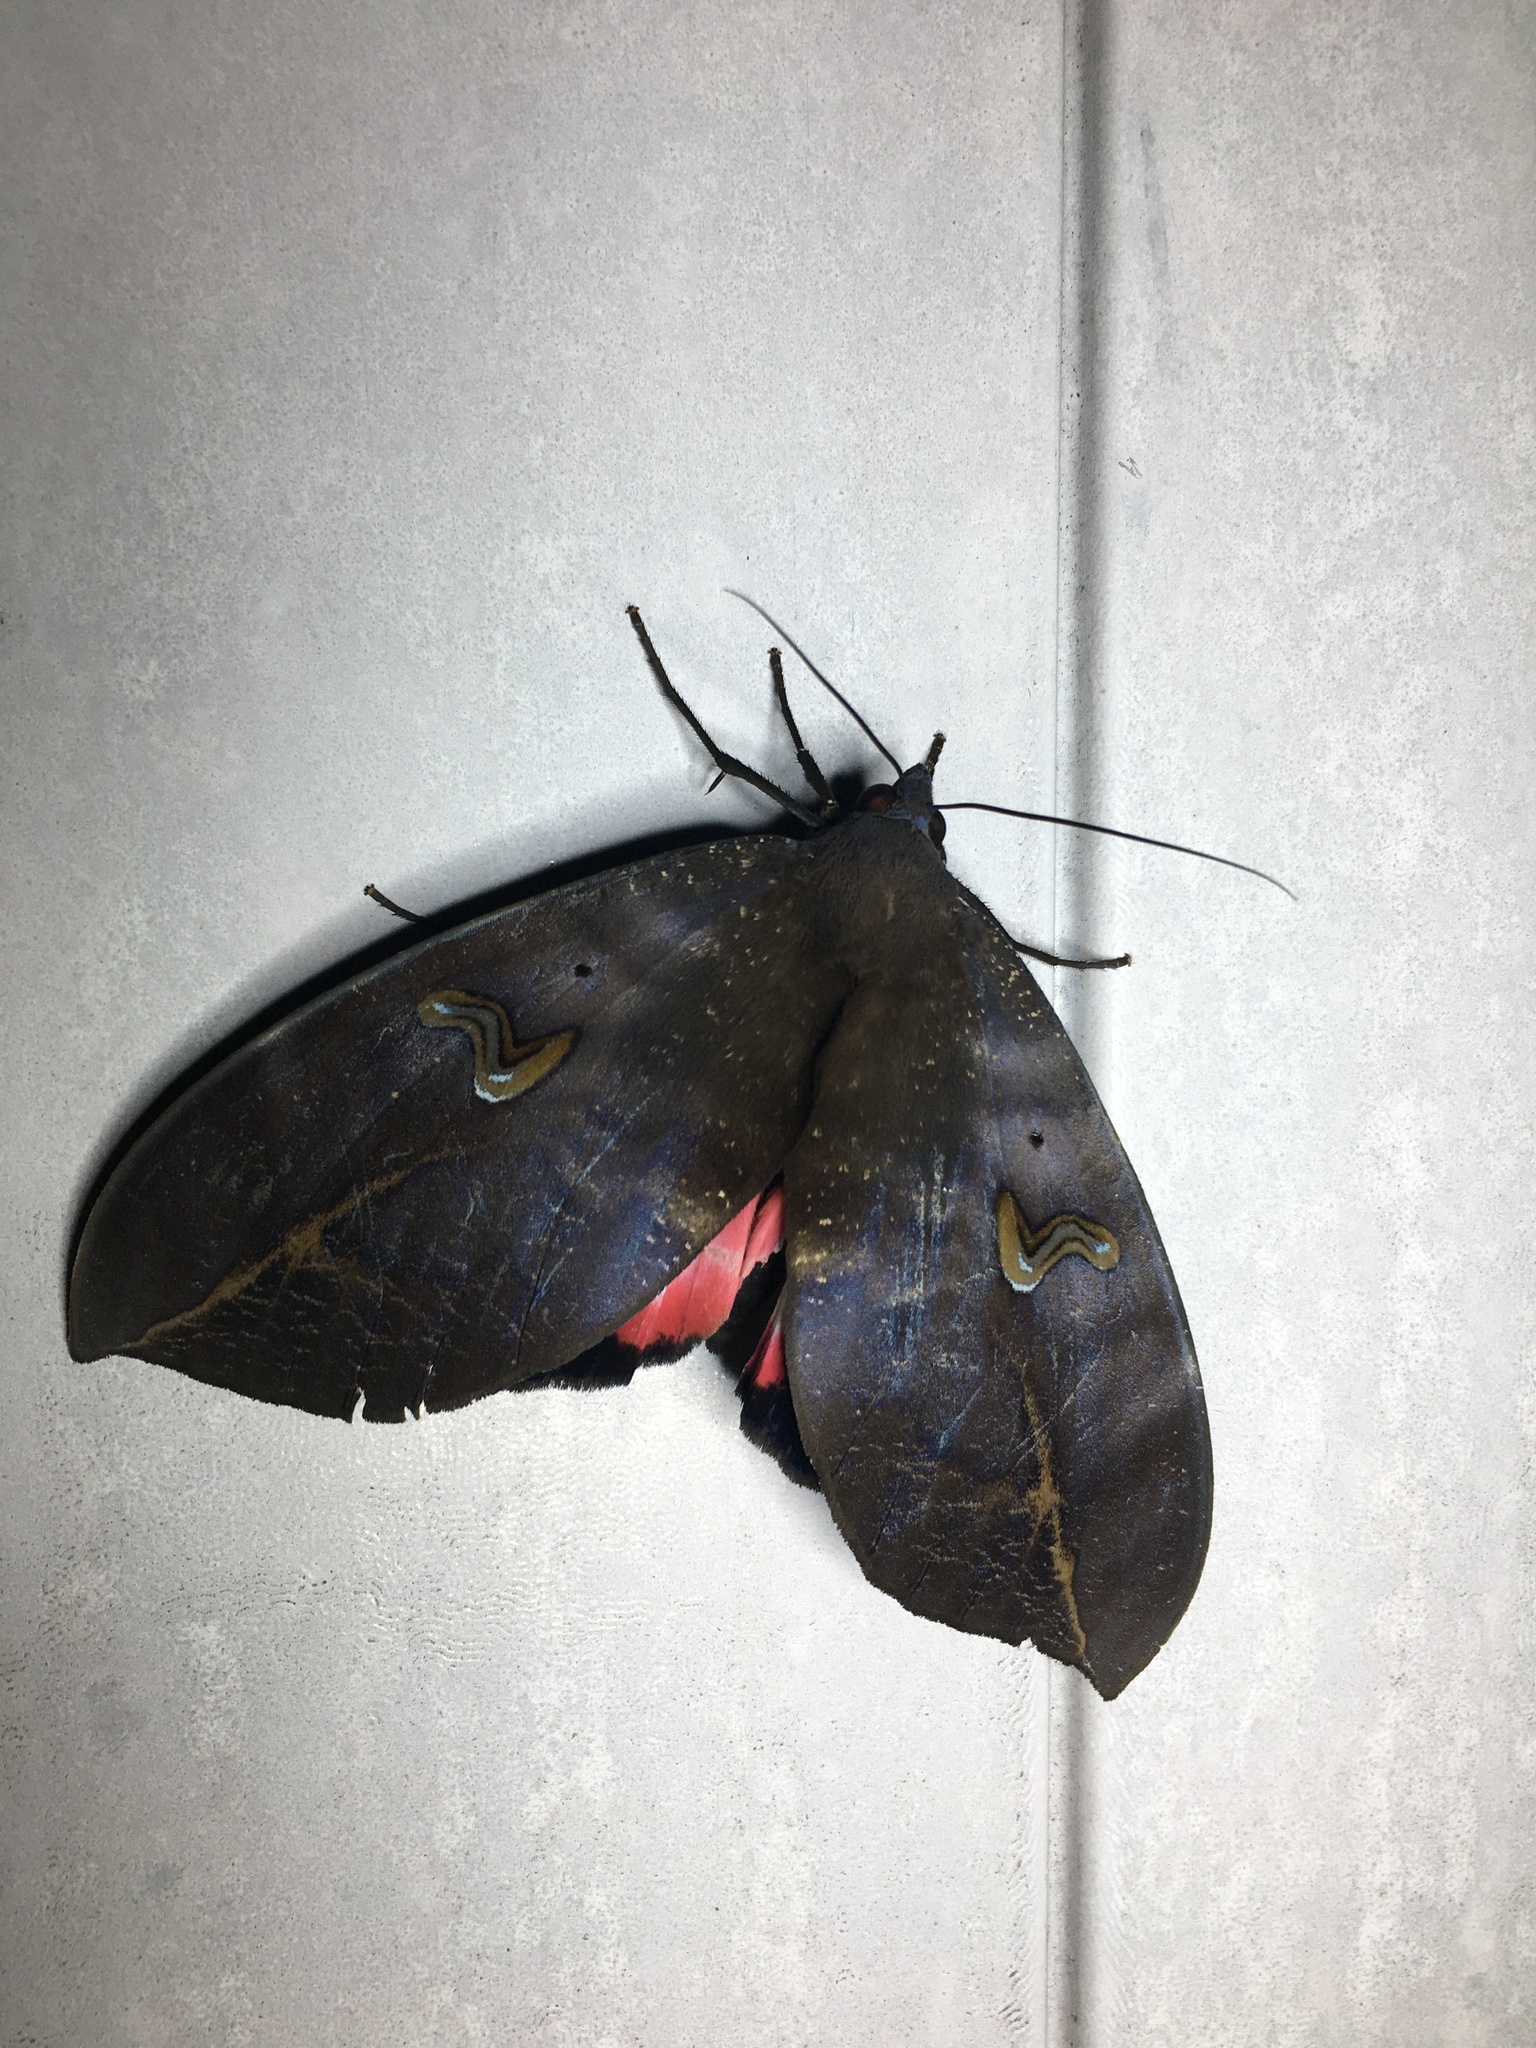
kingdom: Animalia
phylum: Arthropoda
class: Insecta
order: Lepidoptera
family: Erebidae
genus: Phyllodes
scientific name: Phyllodes verhuelli
